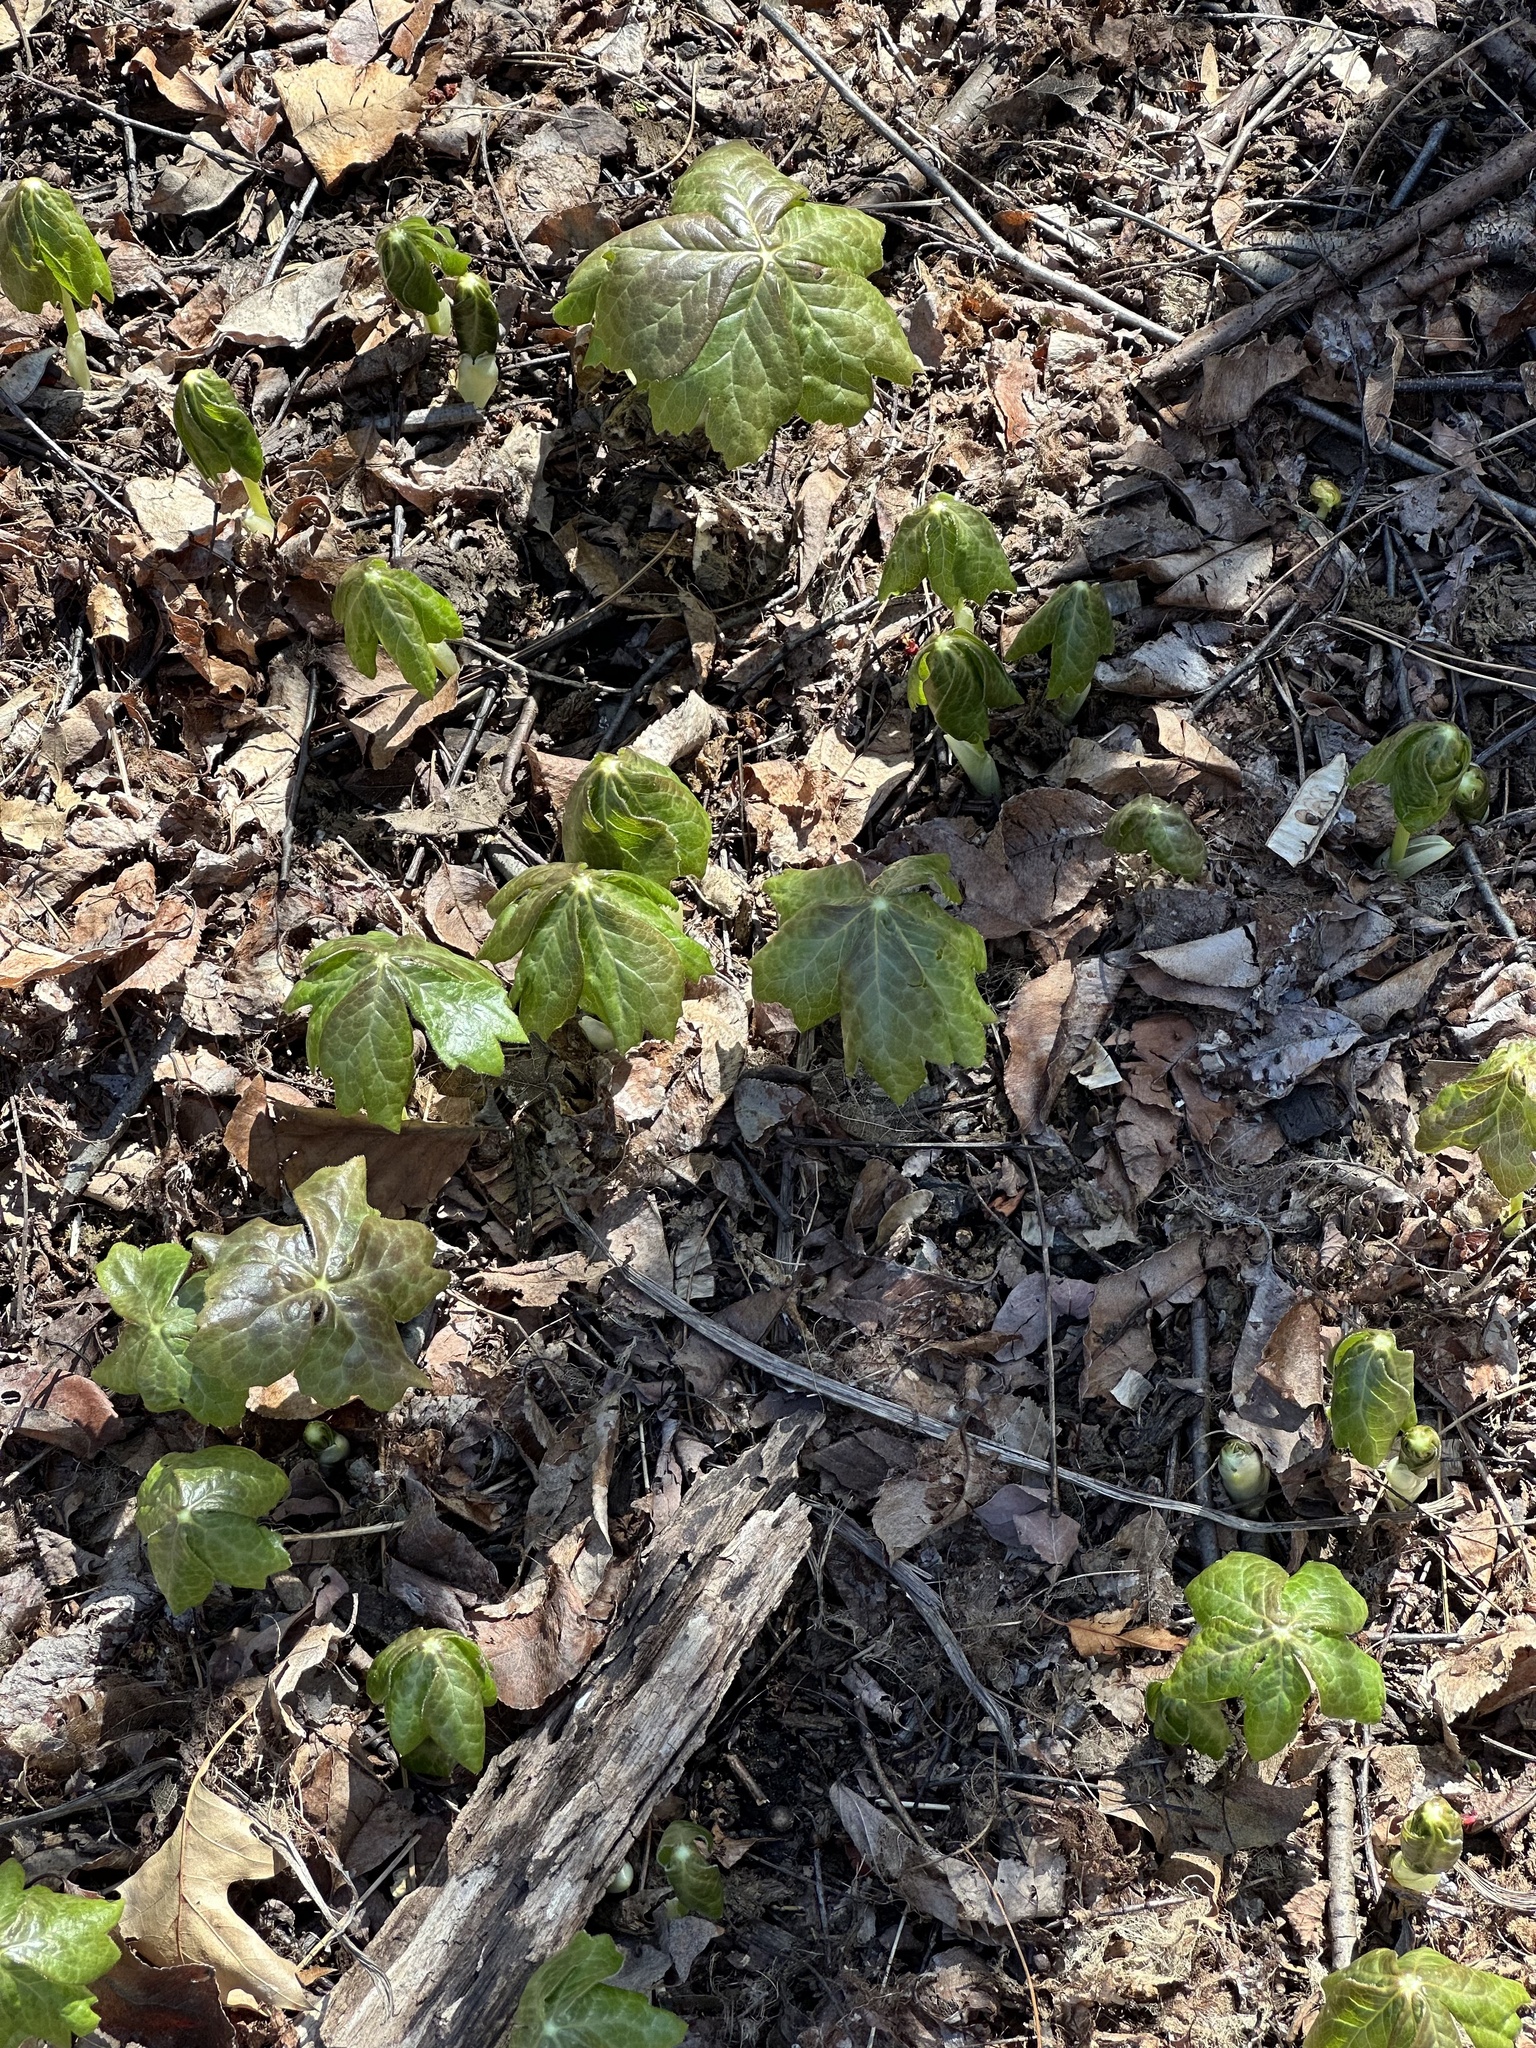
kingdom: Plantae
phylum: Tracheophyta
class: Magnoliopsida
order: Ranunculales
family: Berberidaceae
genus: Podophyllum
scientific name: Podophyllum peltatum
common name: Wild mandrake
